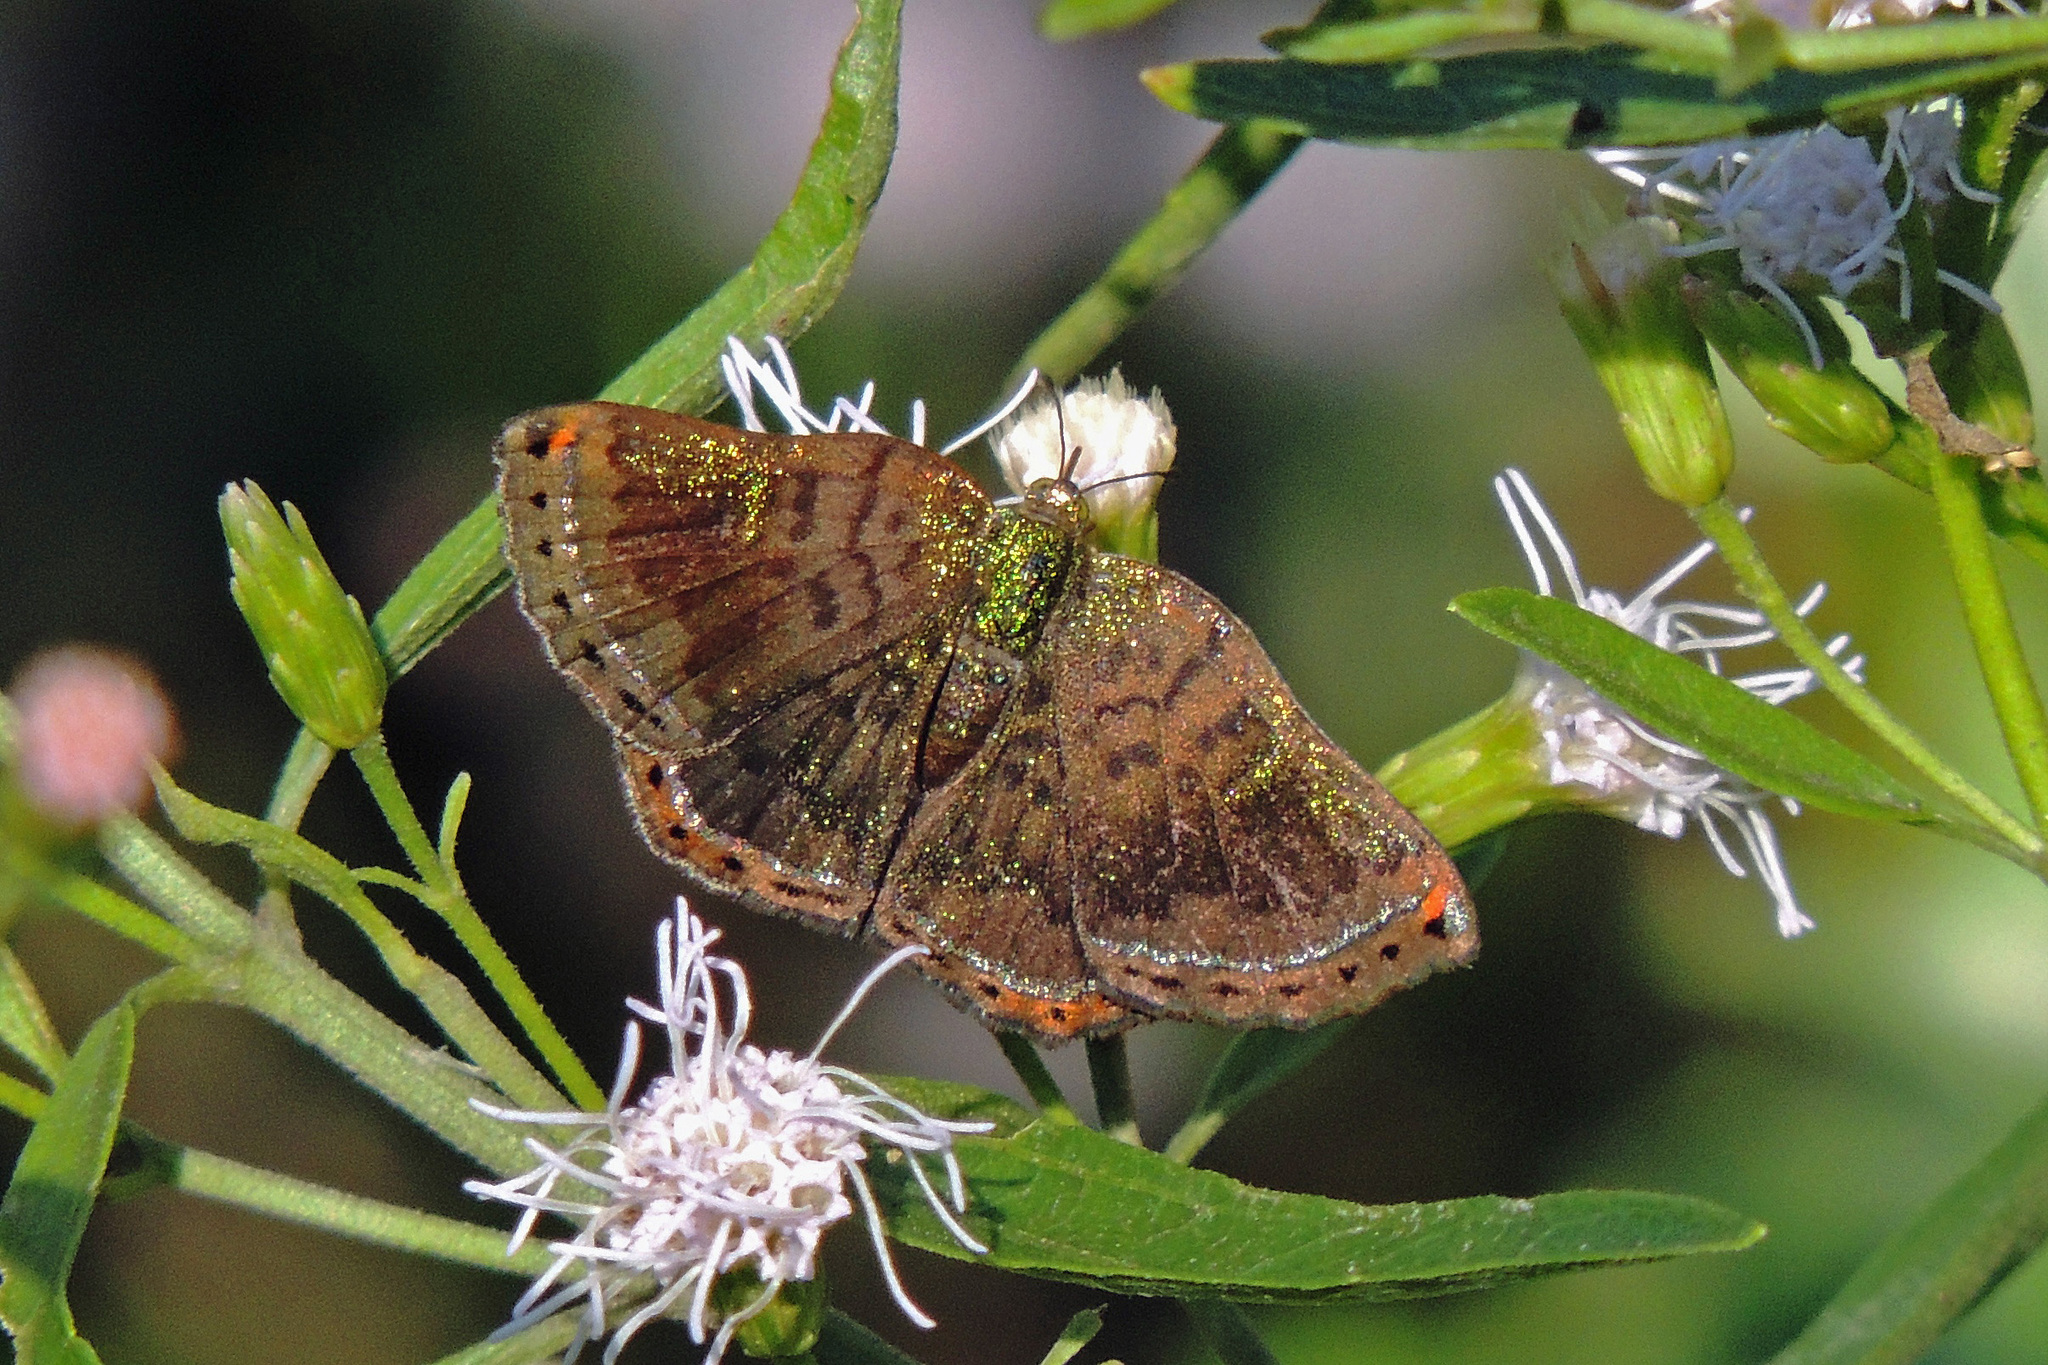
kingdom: Animalia
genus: Caria
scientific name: Caria castalia
